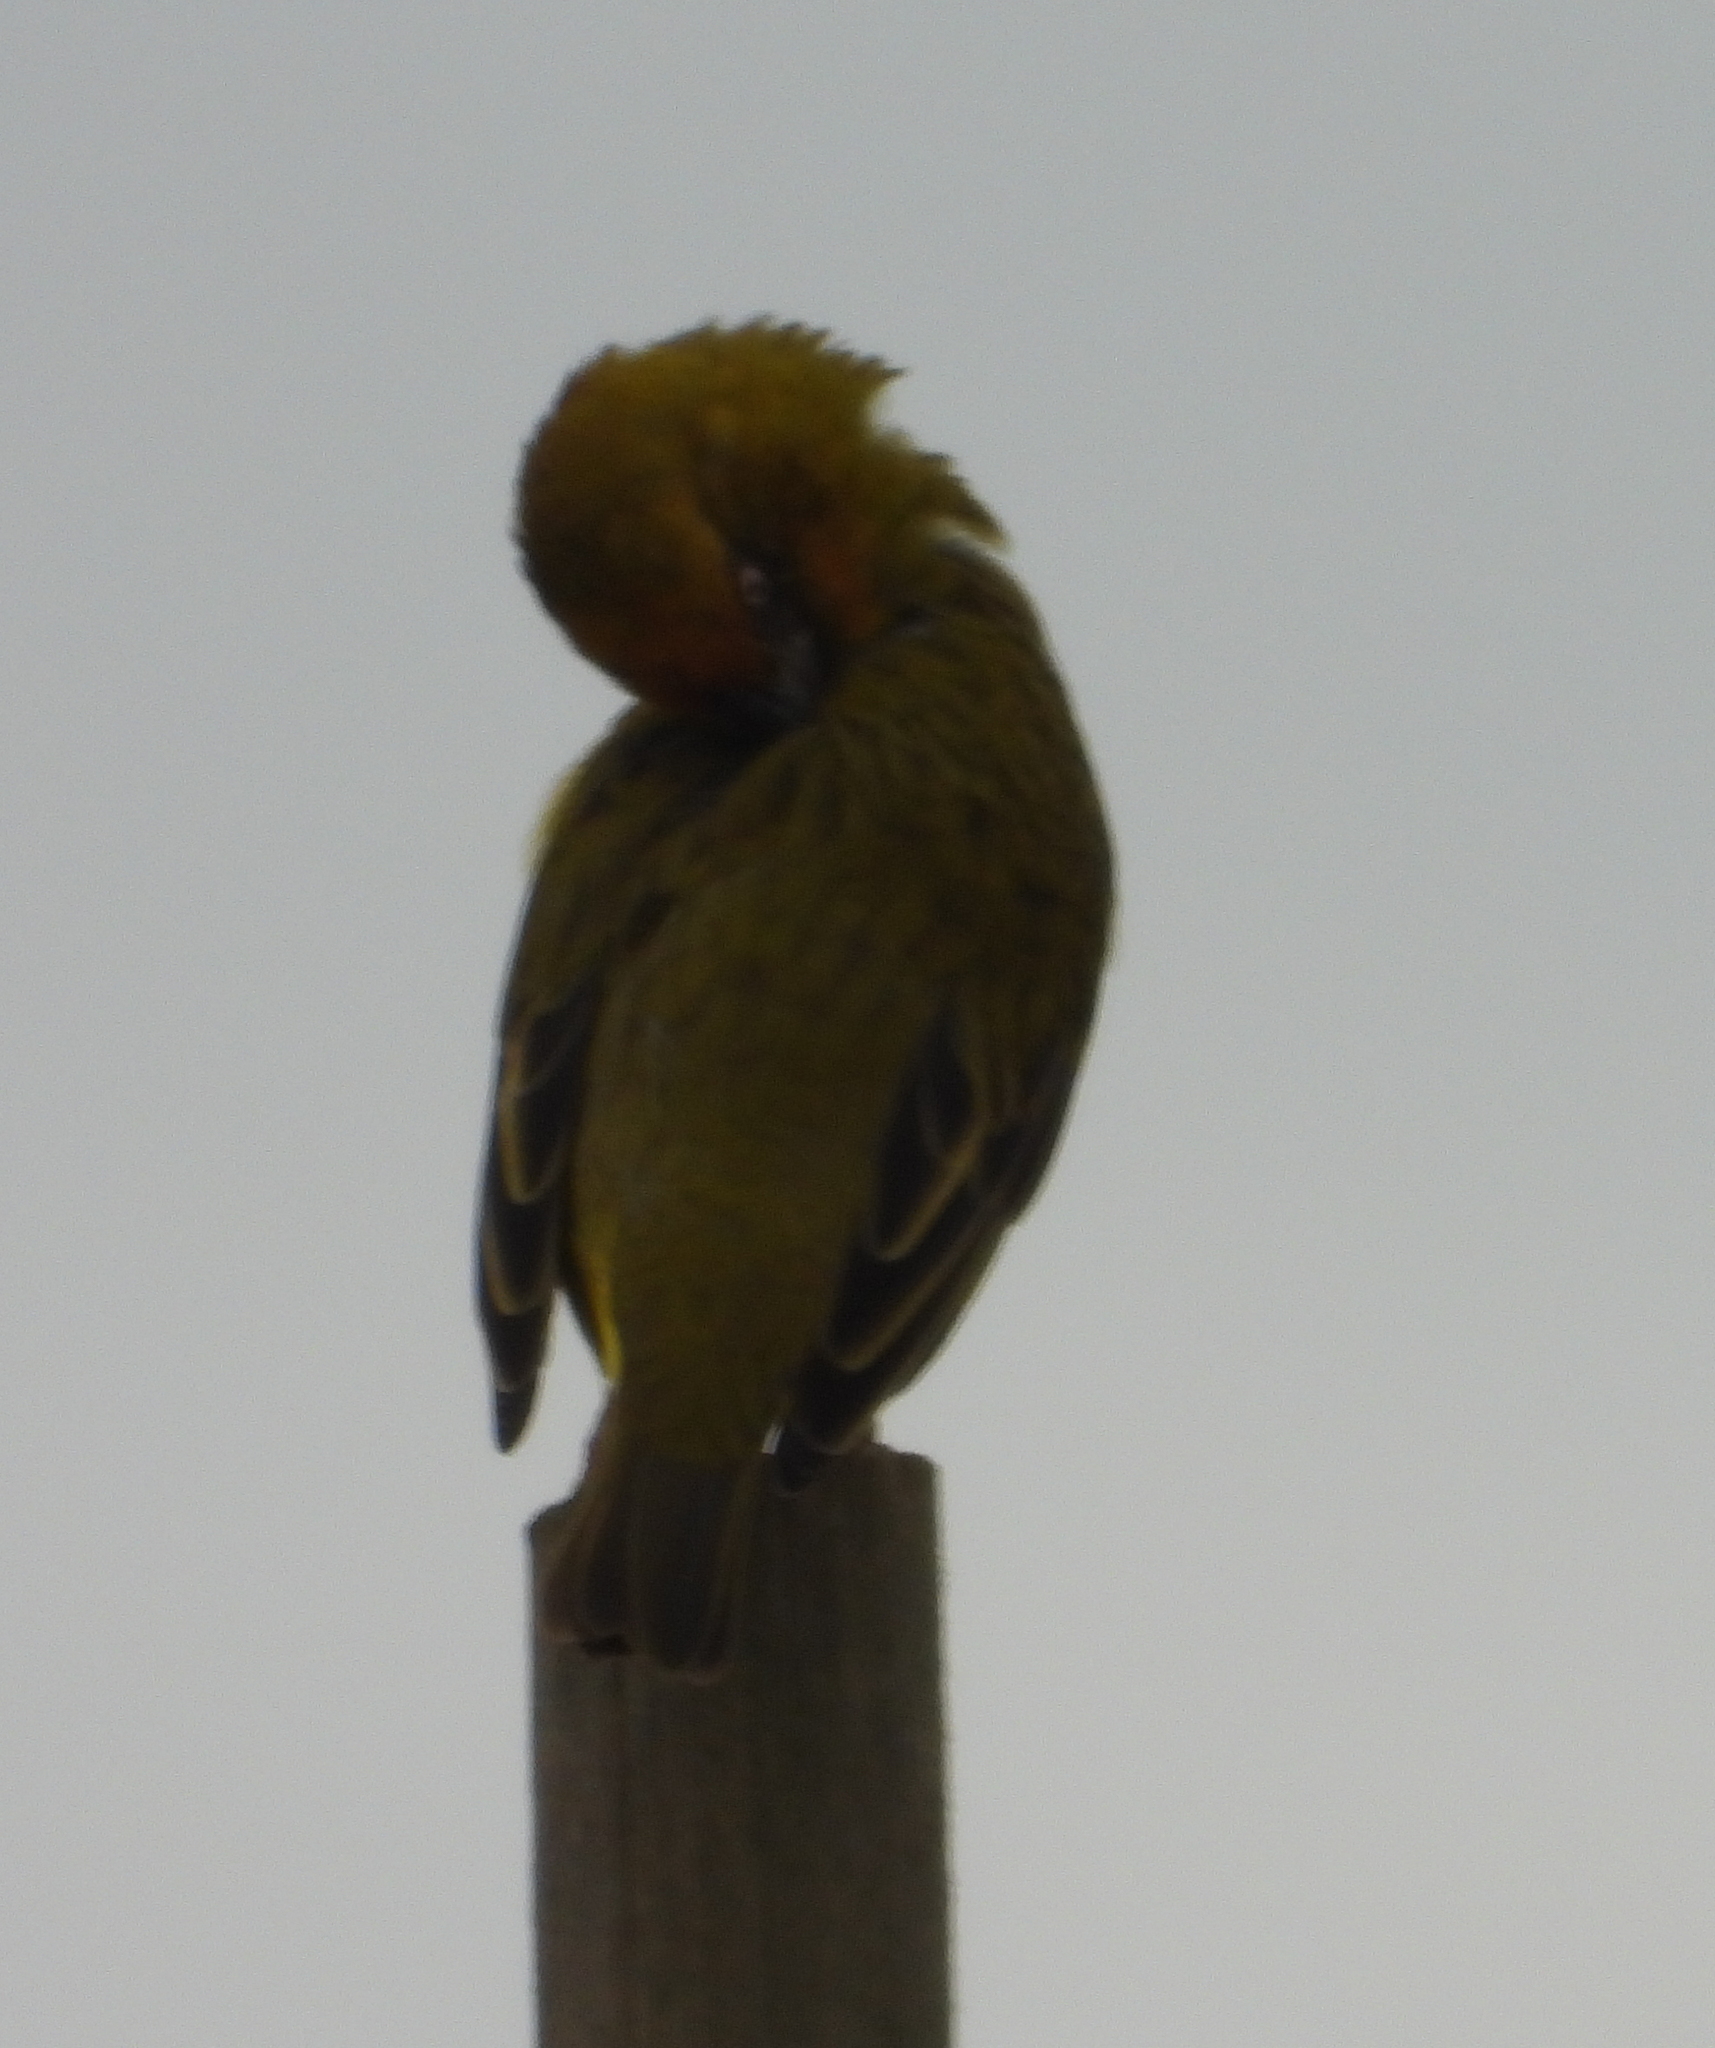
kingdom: Animalia
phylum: Chordata
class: Aves
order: Passeriformes
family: Ploceidae
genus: Ploceus
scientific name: Ploceus capensis
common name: Cape weaver
